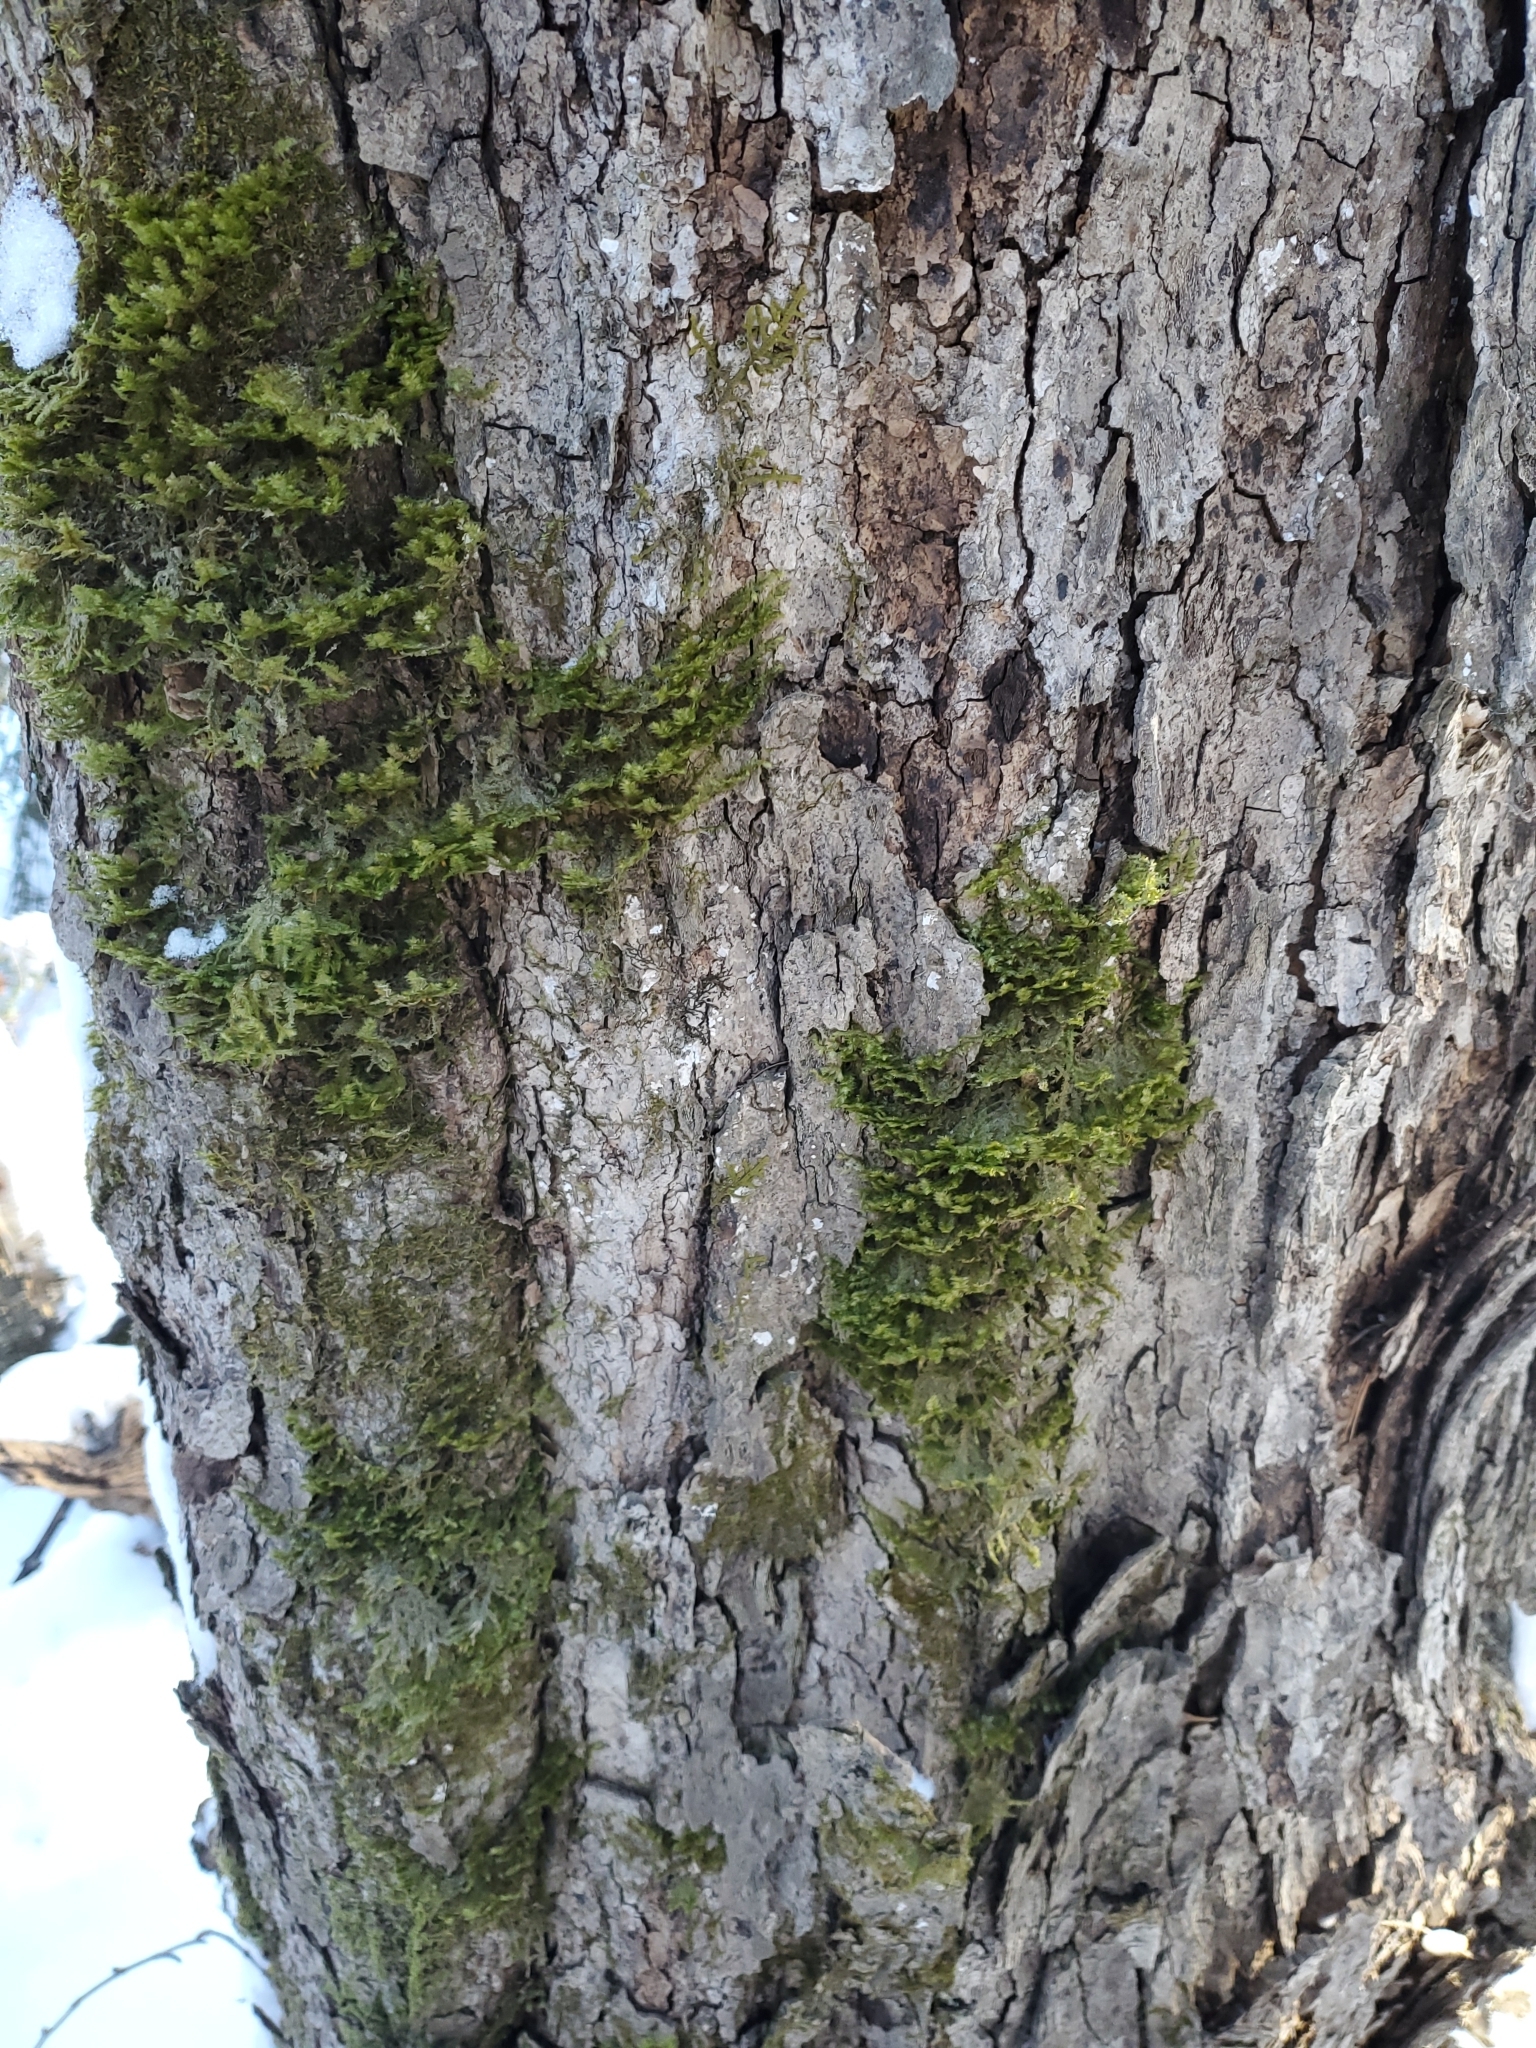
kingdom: Plantae
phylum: Bryophyta
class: Bryopsida
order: Hypnales
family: Neckeraceae
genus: Neckera
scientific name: Neckera pennata
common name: Feathery neckera
